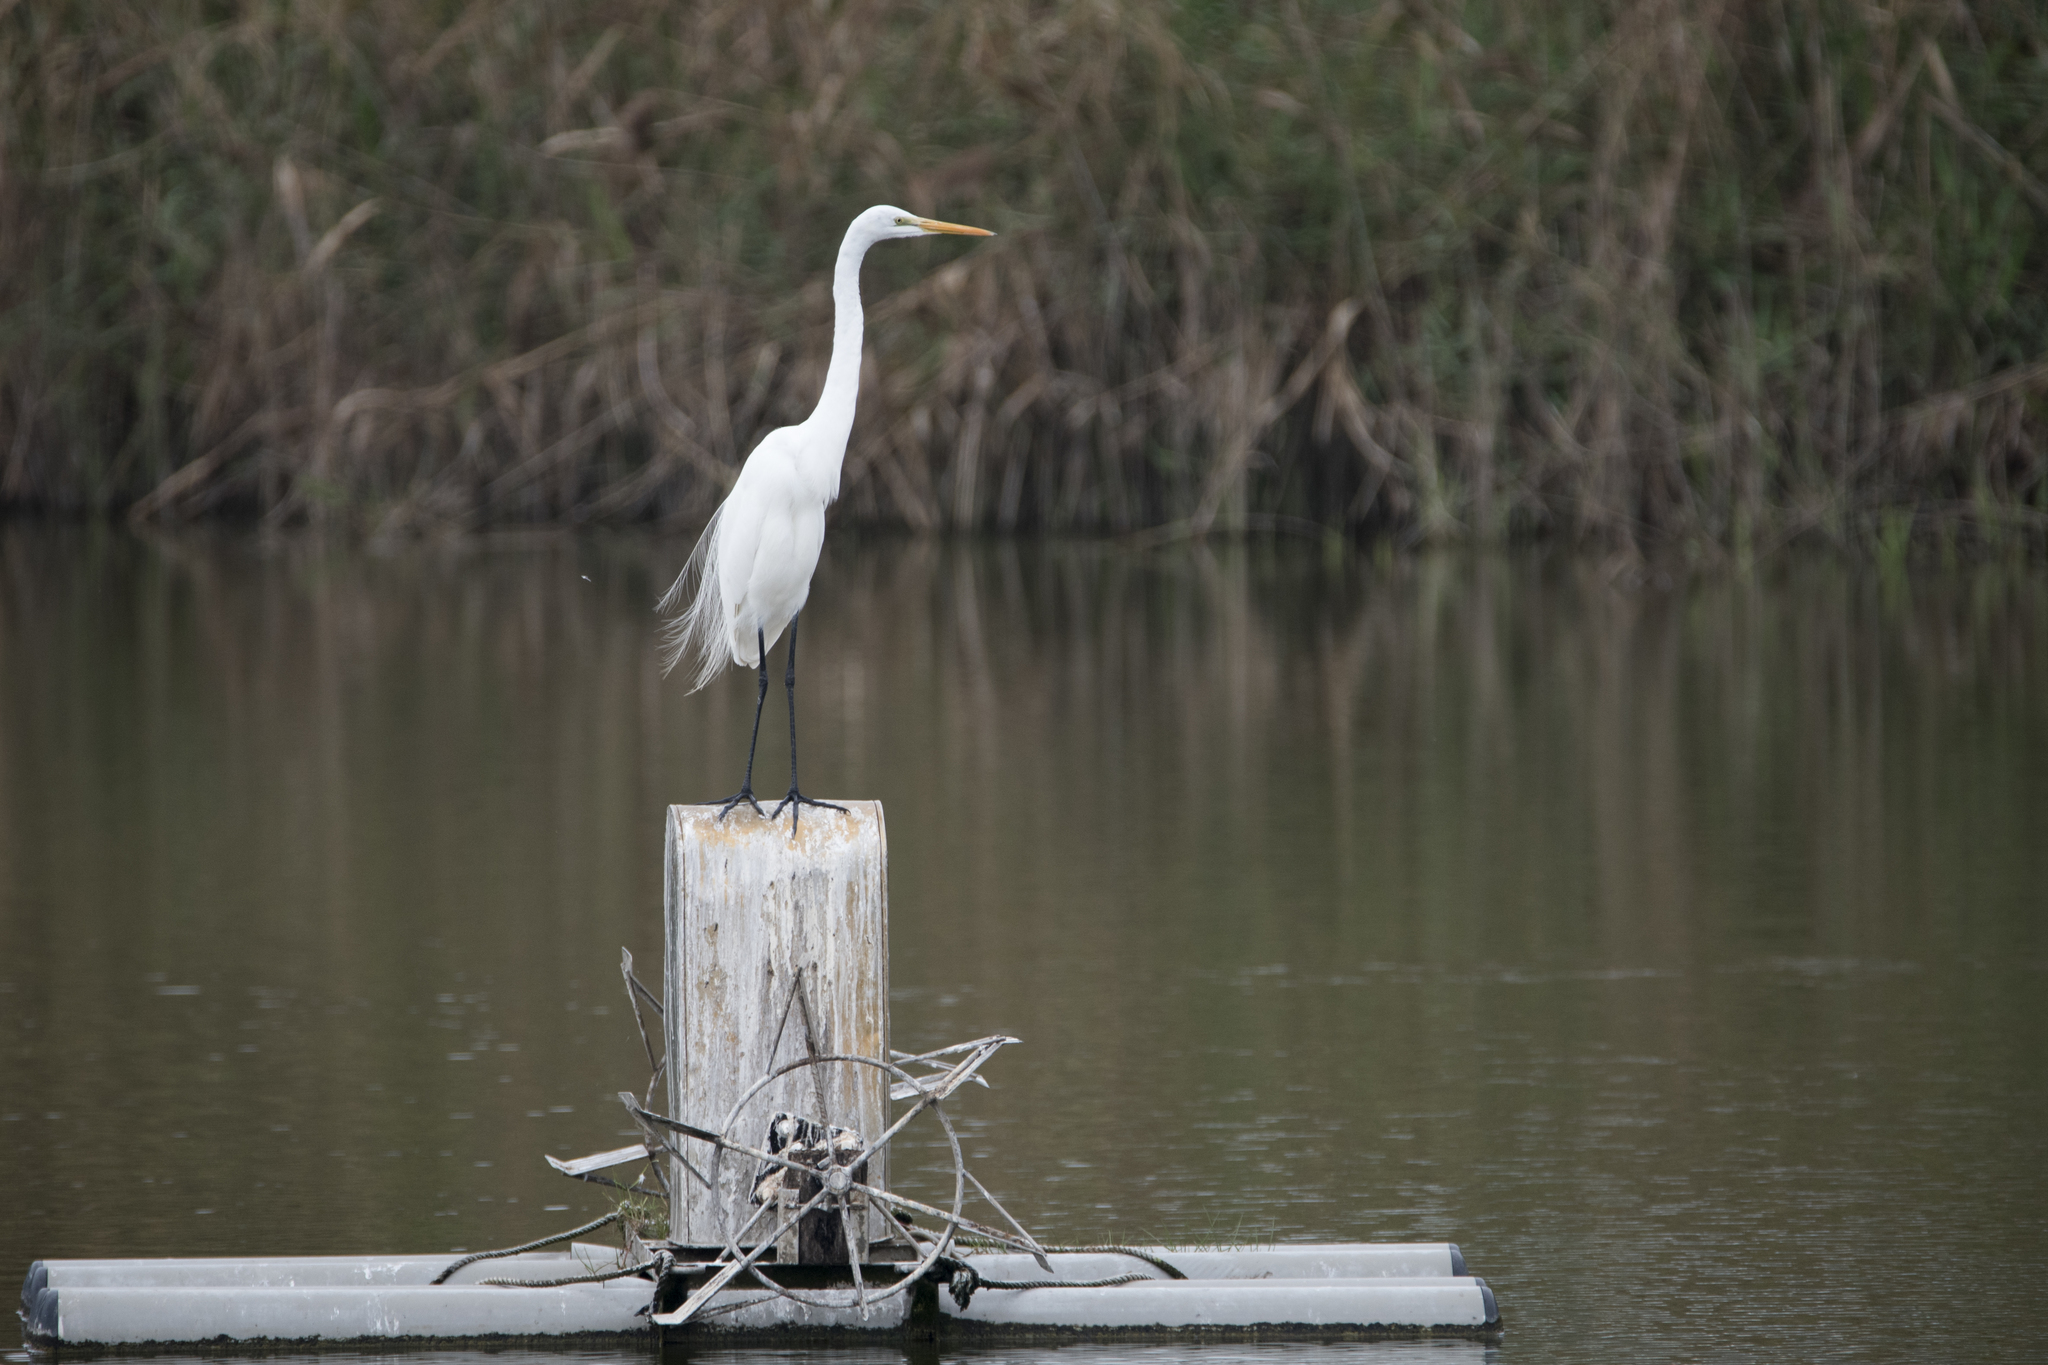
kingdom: Animalia
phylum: Chordata
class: Aves
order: Pelecaniformes
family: Ardeidae
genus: Ardea
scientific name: Ardea modesta
